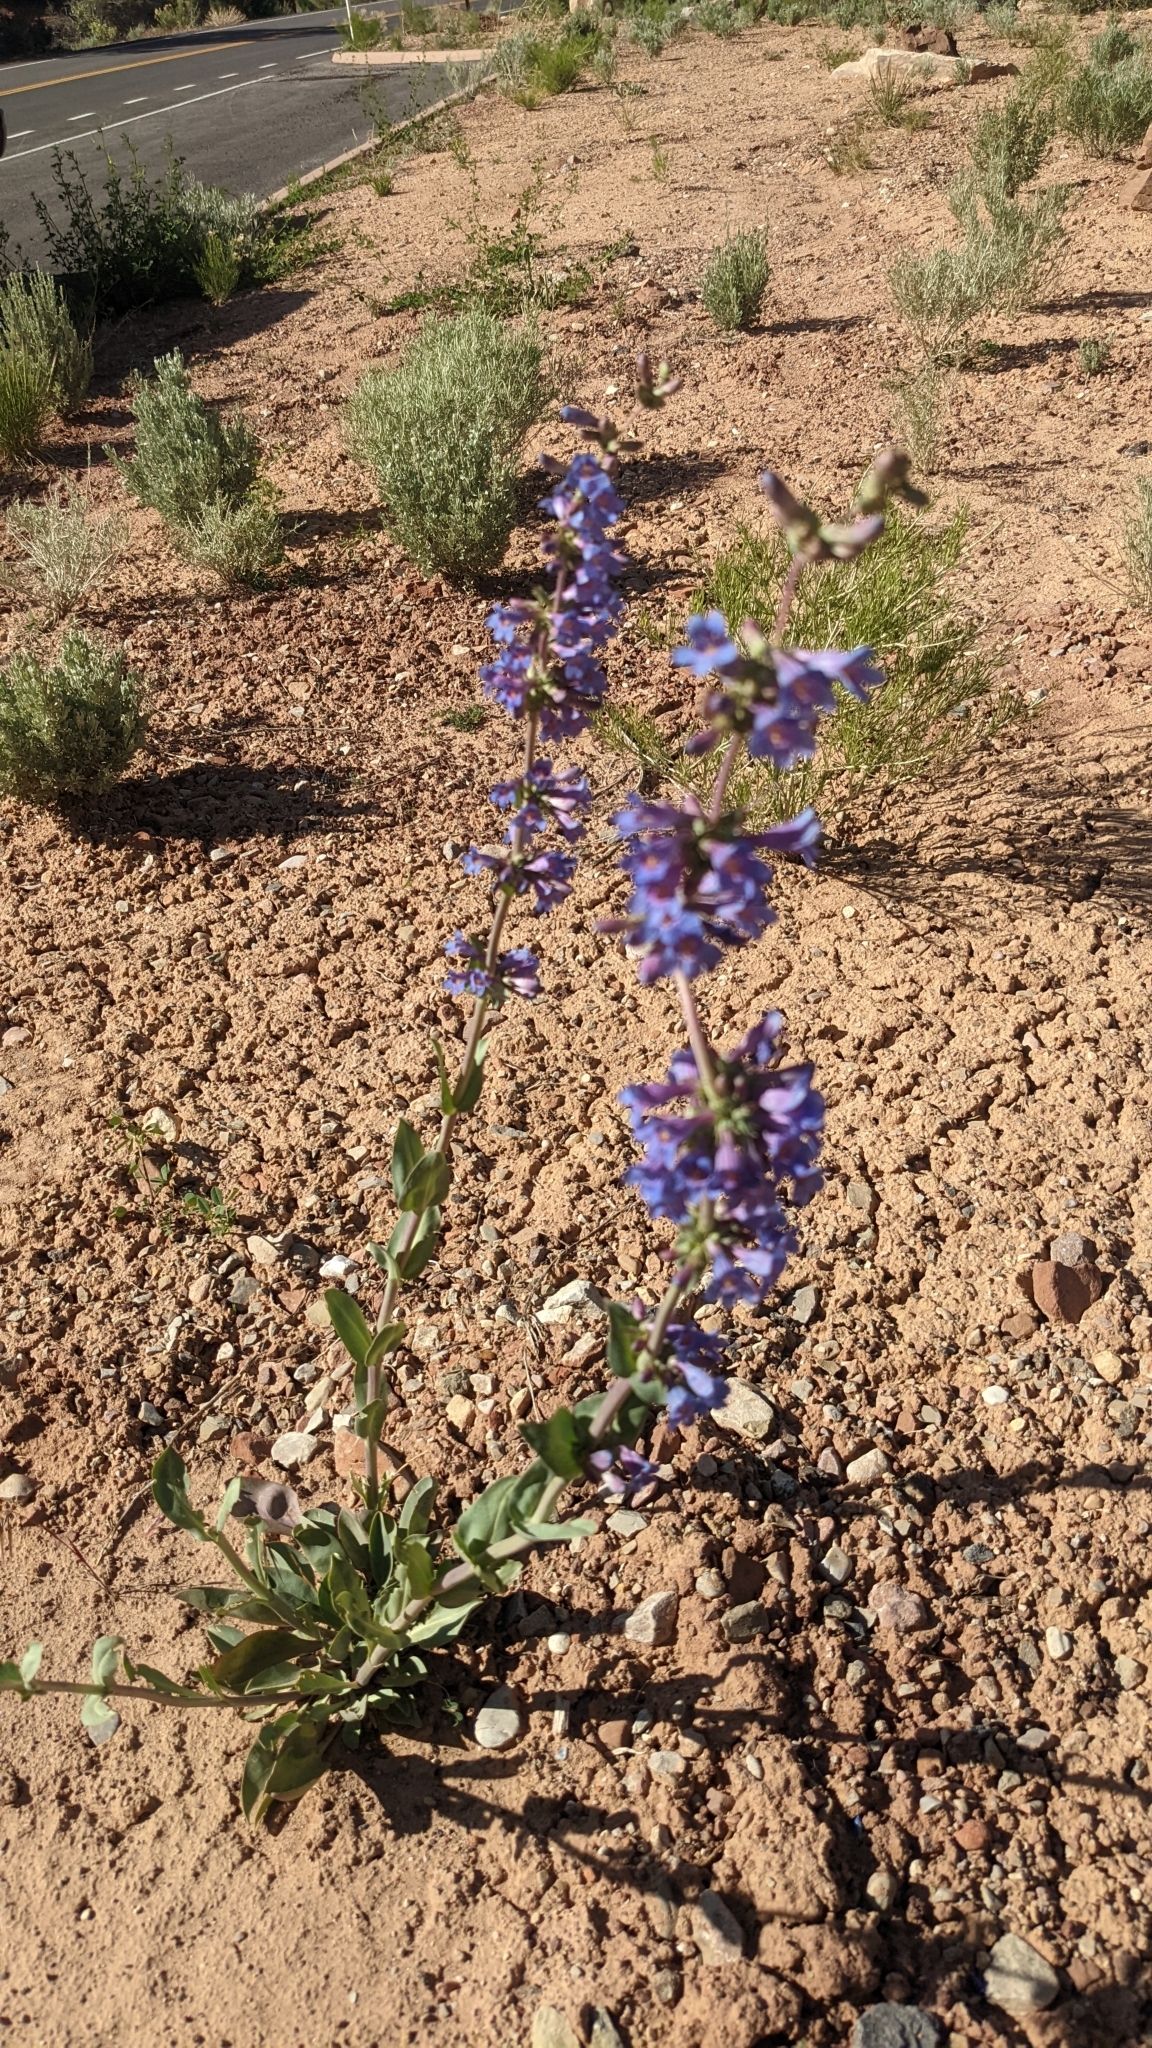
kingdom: Plantae
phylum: Tracheophyta
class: Magnoliopsida
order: Lamiales
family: Plantaginaceae
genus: Penstemon
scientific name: Penstemon pachyphyllus
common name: Thick-leaf penstemon
